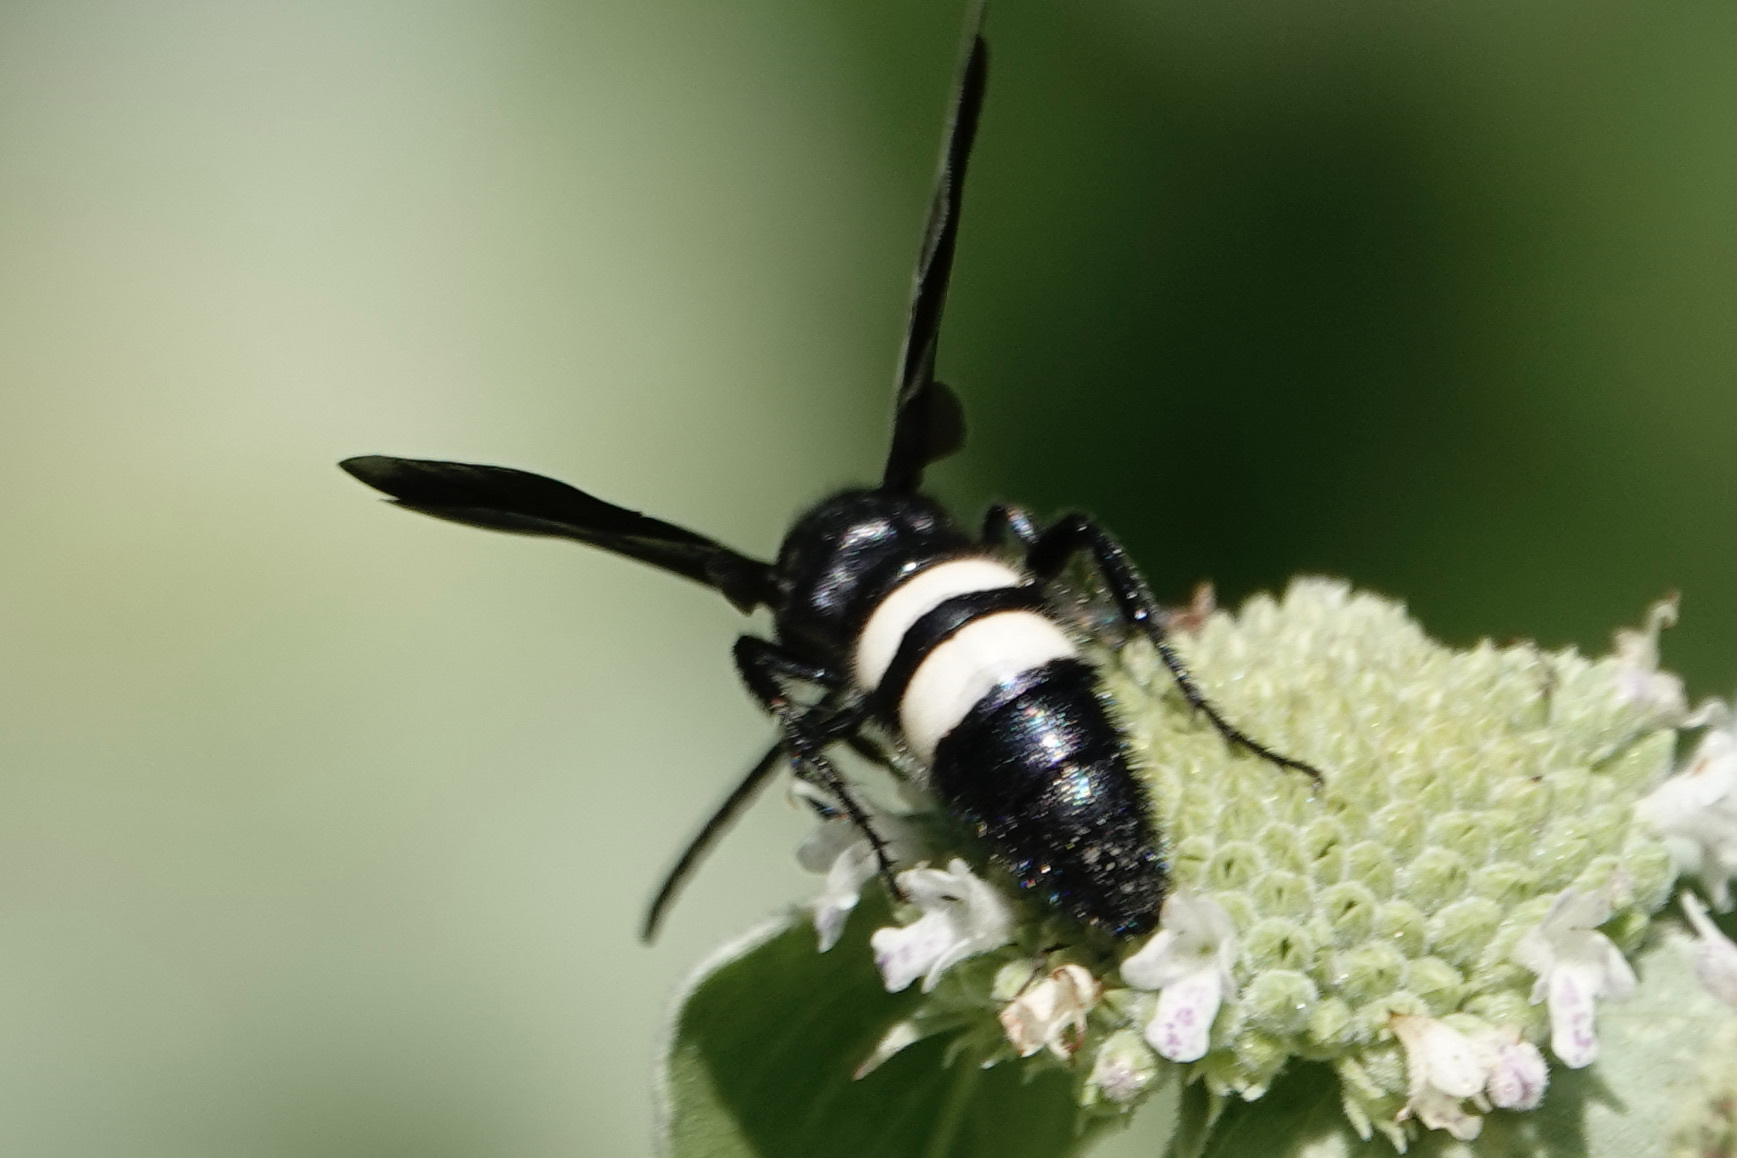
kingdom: Animalia
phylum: Arthropoda
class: Insecta
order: Hymenoptera
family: Scoliidae
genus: Scolia
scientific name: Scolia bicincta
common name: Double-banded scoliid wasp
